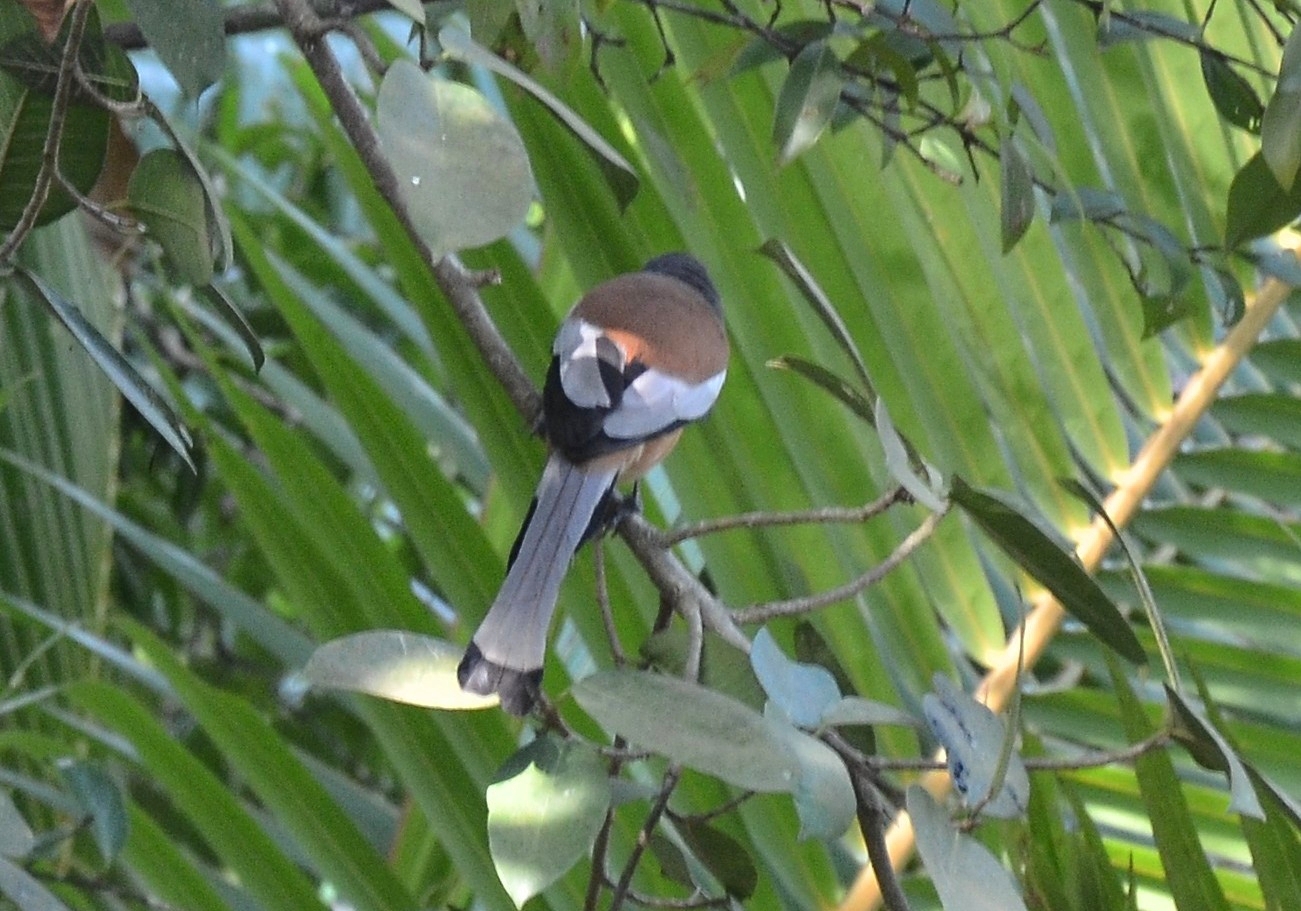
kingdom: Animalia
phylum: Chordata
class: Aves
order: Passeriformes
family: Corvidae
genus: Dendrocitta
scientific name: Dendrocitta vagabunda
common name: Rufous treepie
